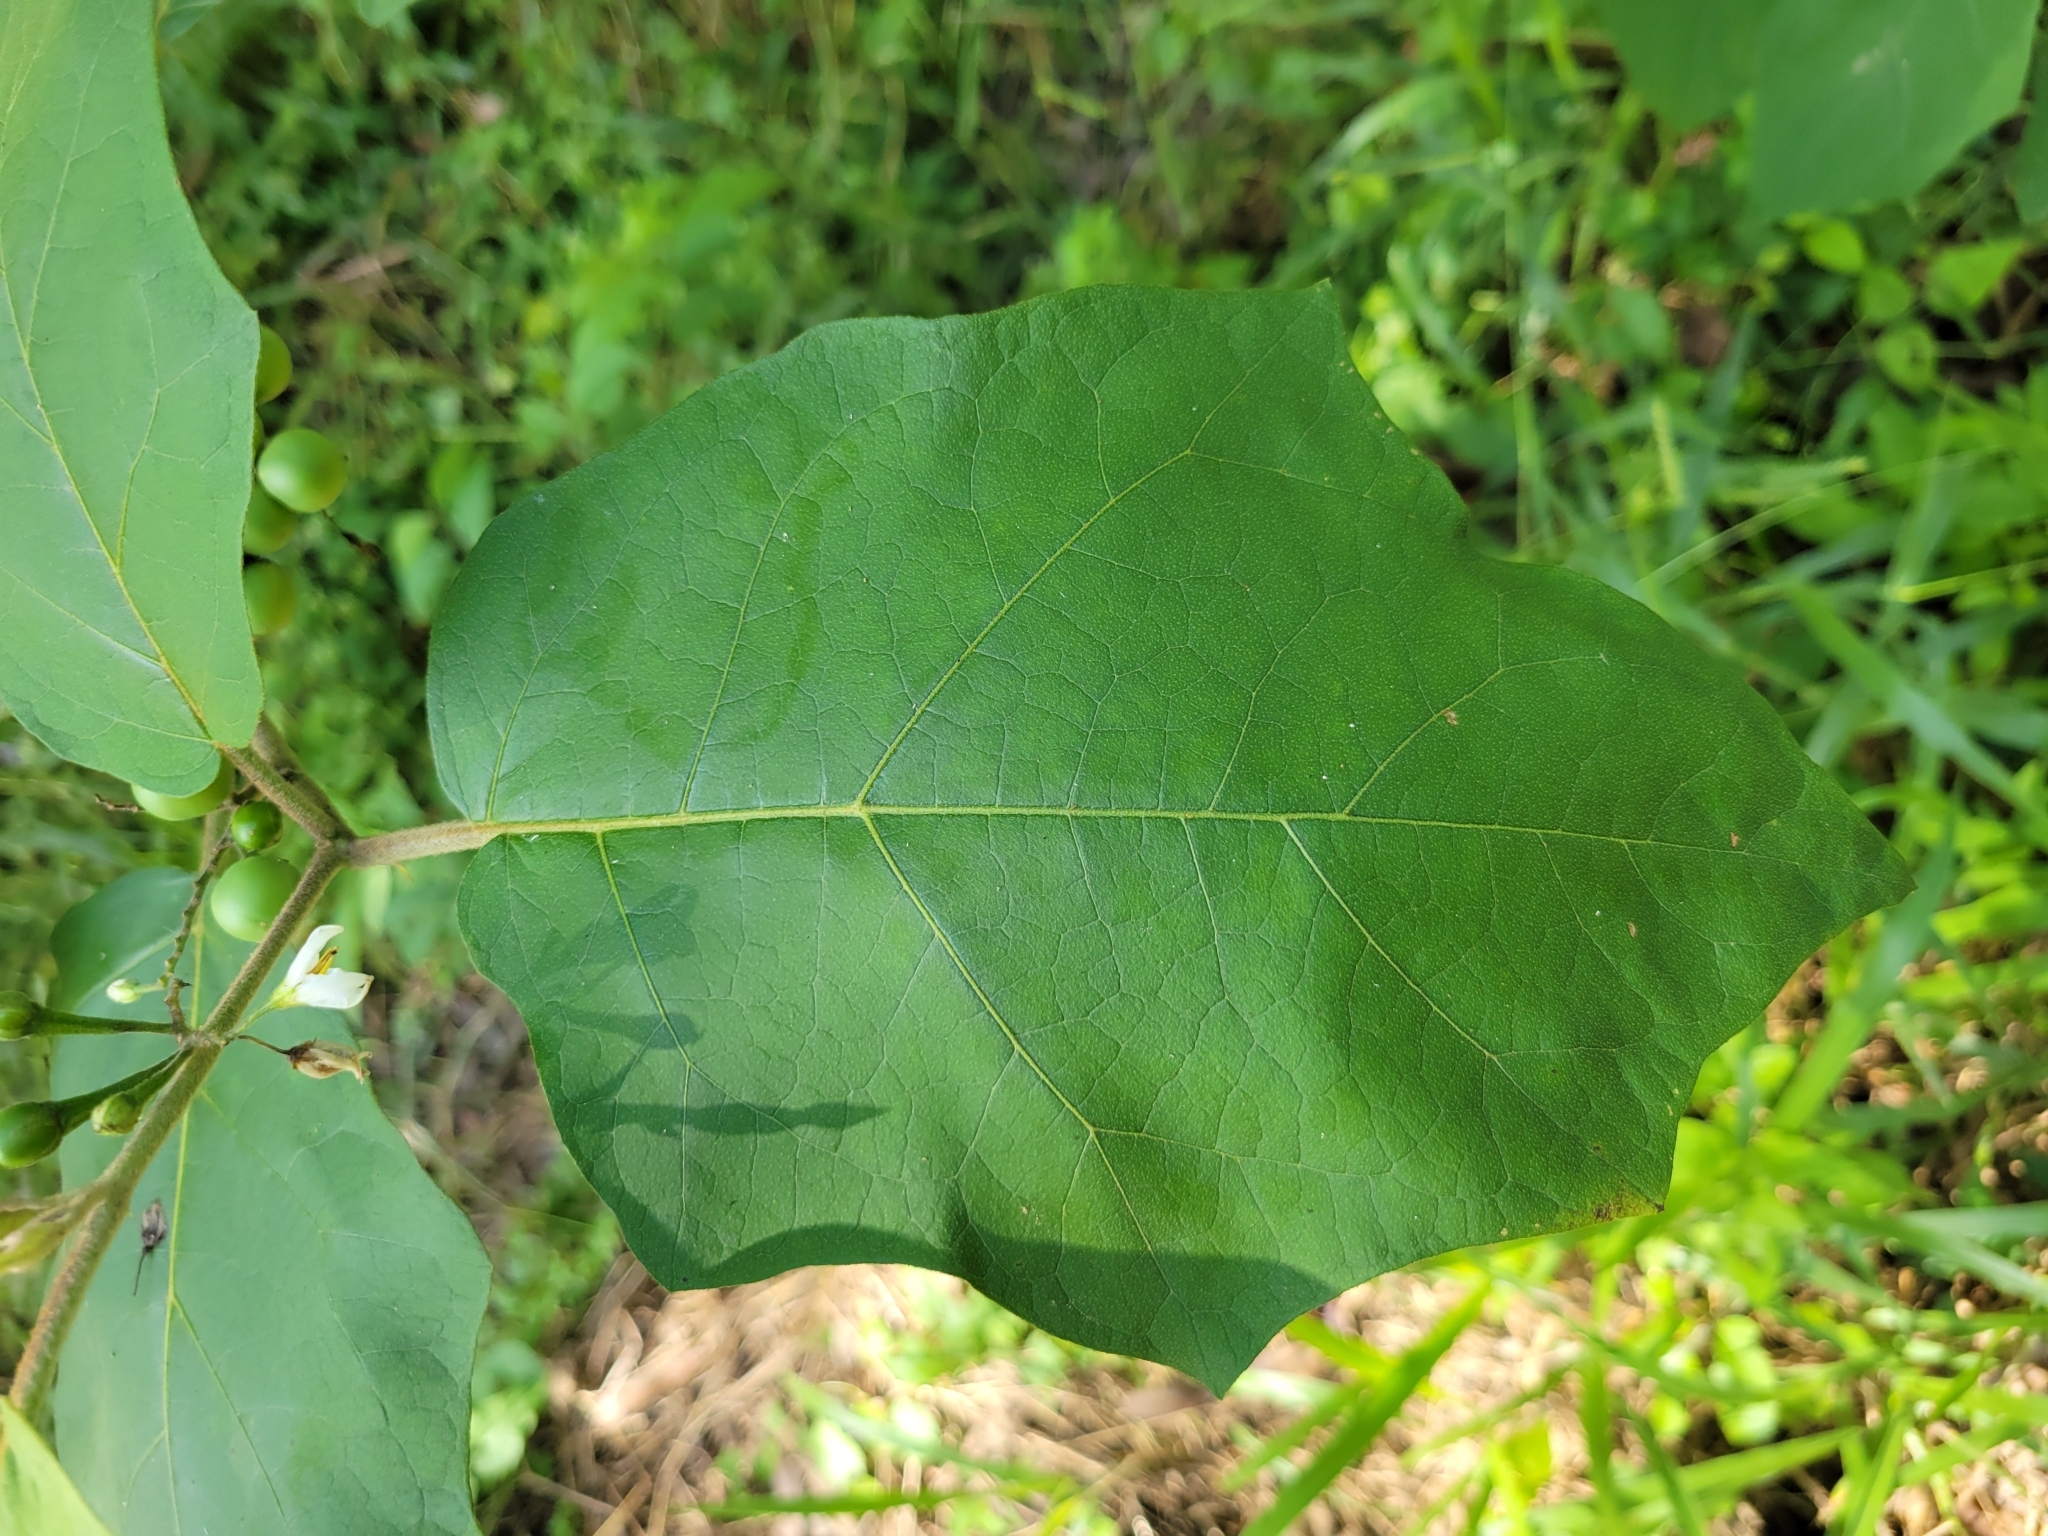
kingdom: Plantae
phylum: Tracheophyta
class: Magnoliopsida
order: Solanales
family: Solanaceae
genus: Solanum
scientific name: Solanum torvum
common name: Turkey berry
